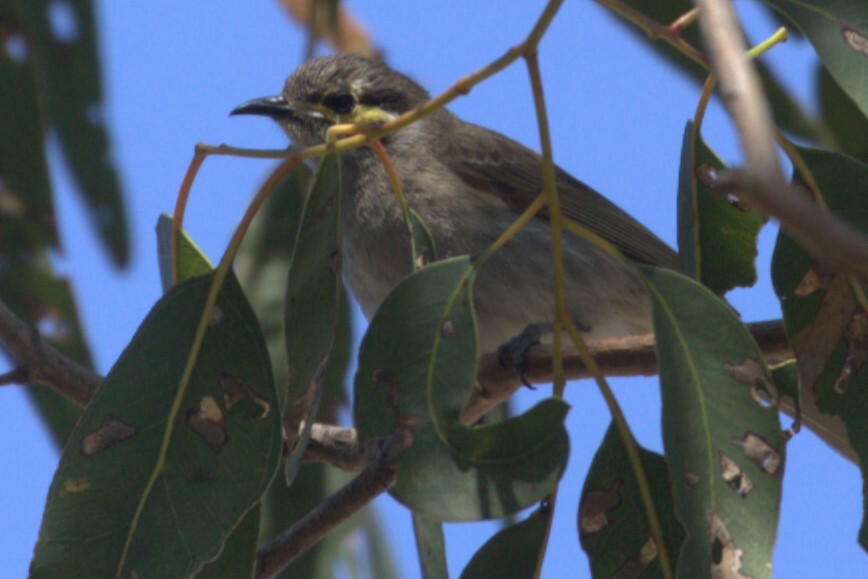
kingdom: Animalia
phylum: Chordata
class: Aves
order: Passeriformes
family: Meliphagidae
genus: Caligavis
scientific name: Caligavis chrysops
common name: Yellow-faced honeyeater
